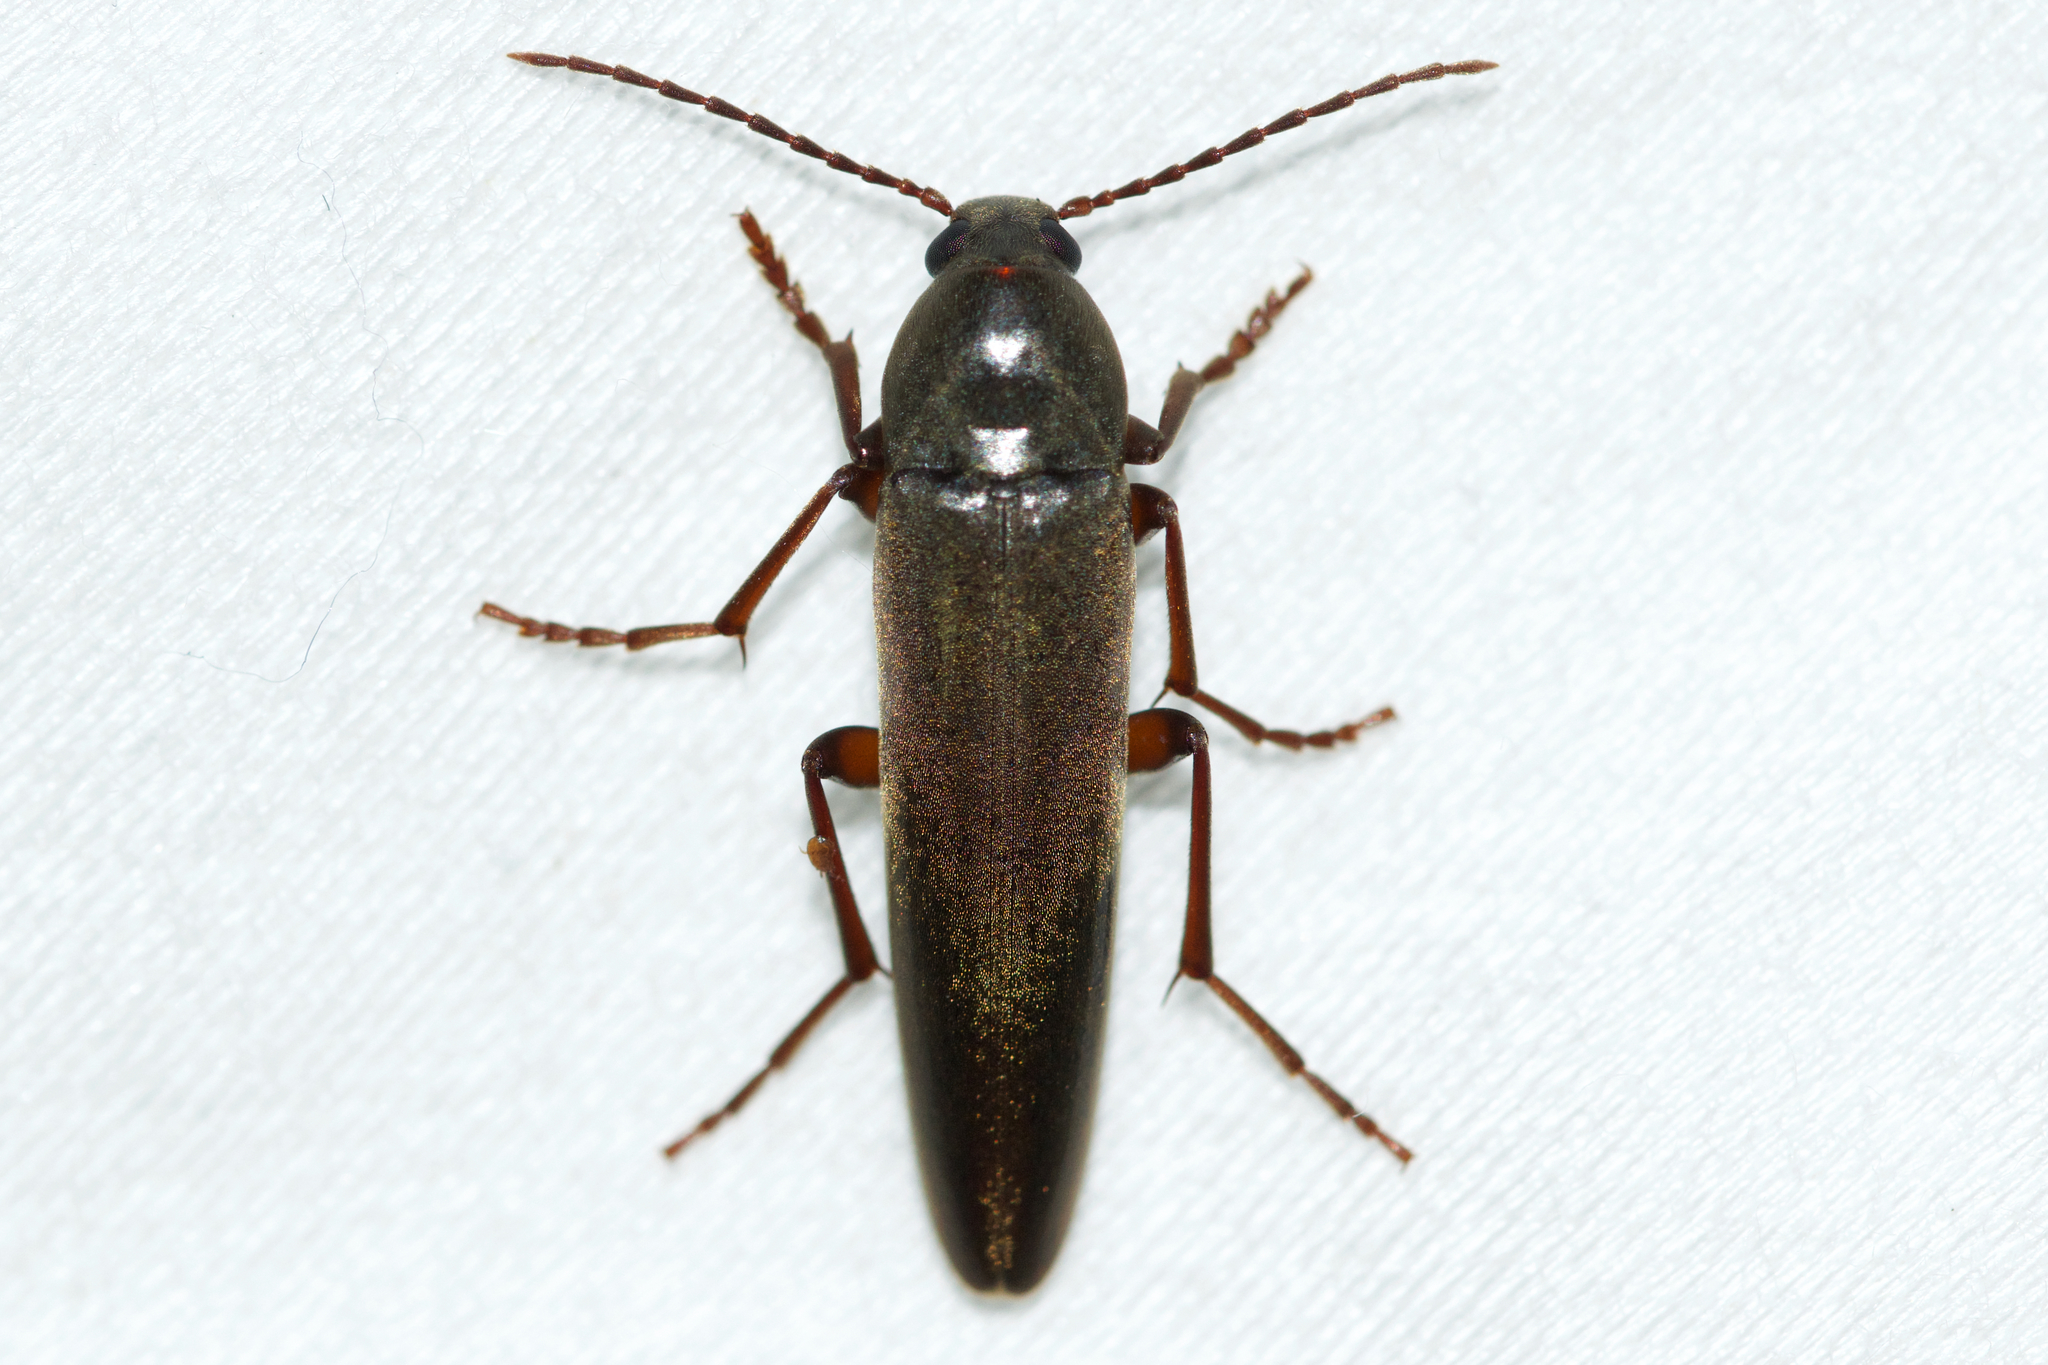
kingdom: Animalia
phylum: Arthropoda
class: Insecta
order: Coleoptera
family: Melandryidae
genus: Enchodes
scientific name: Enchodes sericea
